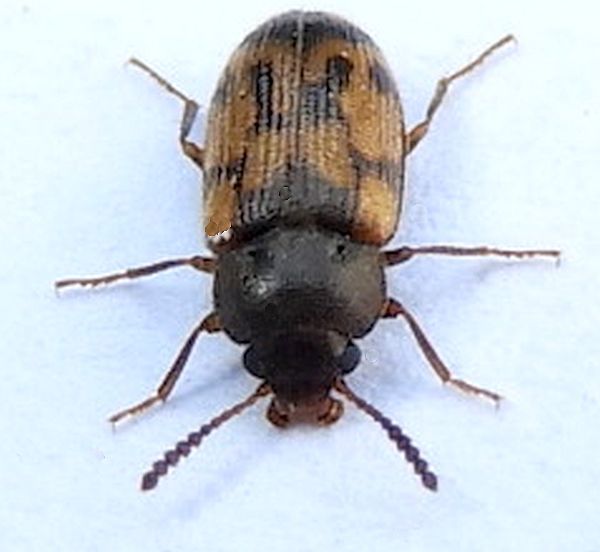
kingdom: Animalia
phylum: Arthropoda
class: Insecta
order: Coleoptera
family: Mycetophagidae
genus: Mycetophagus
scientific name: Mycetophagus pluripunctatus
